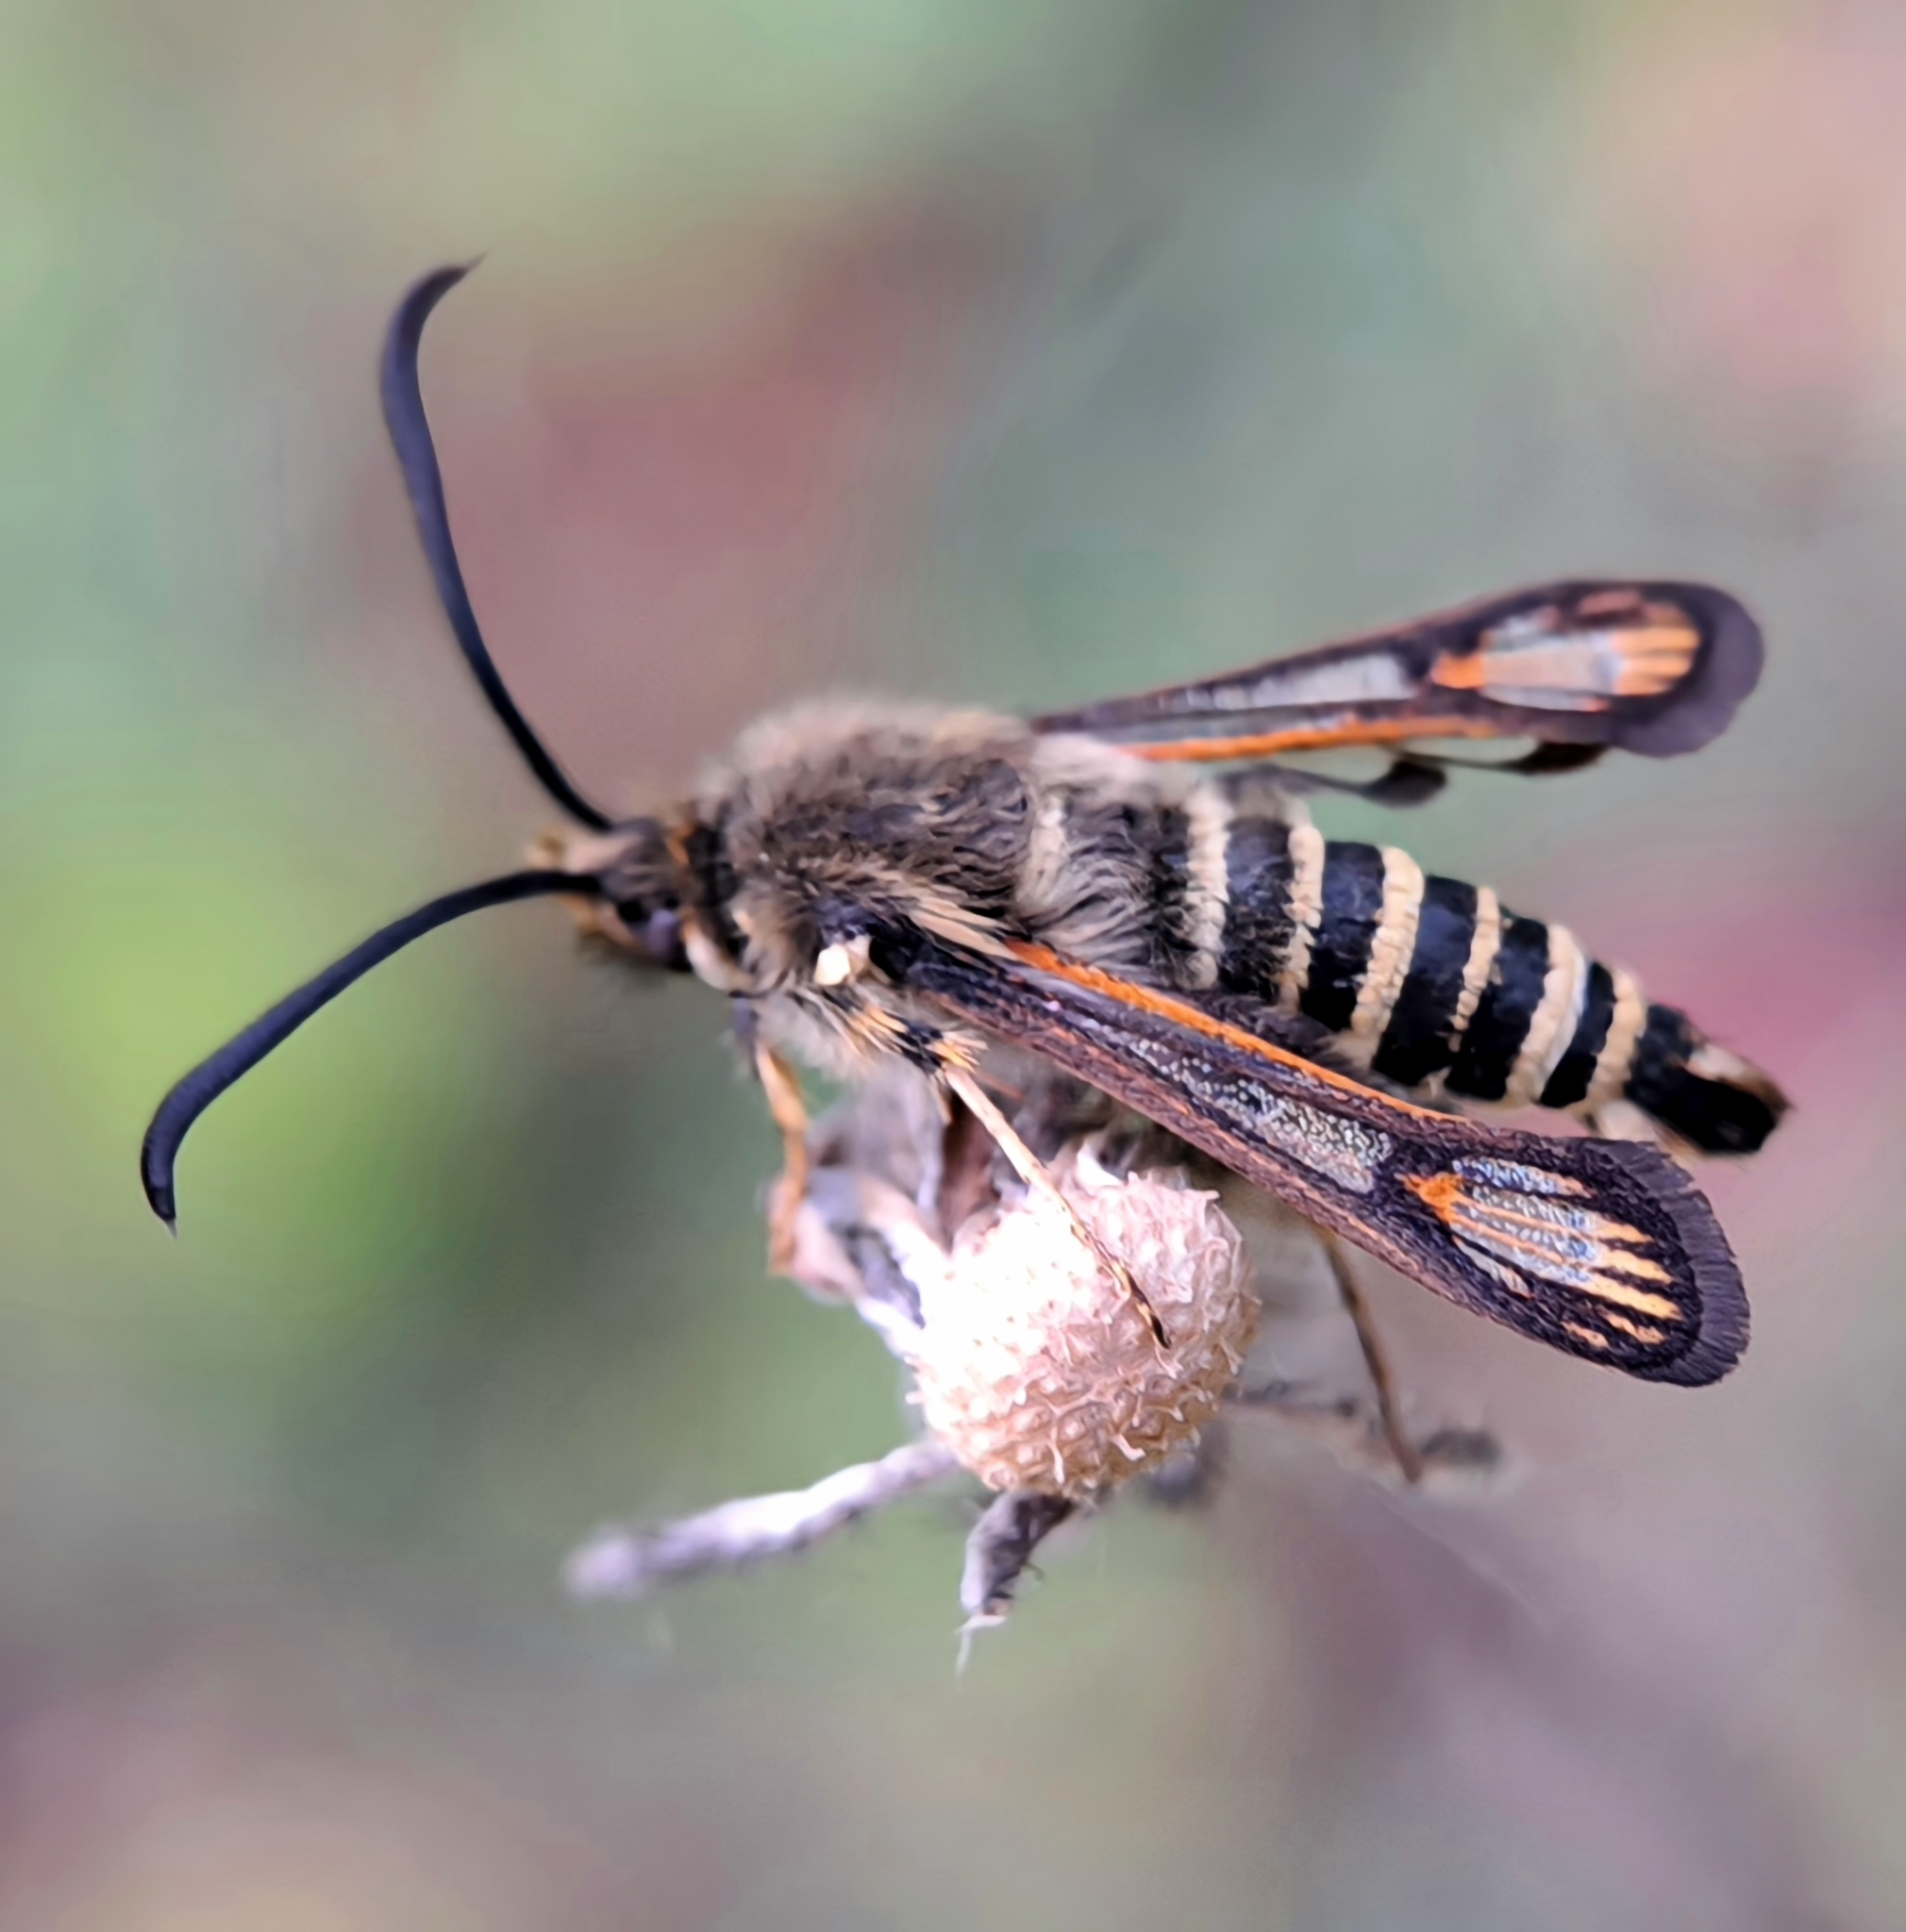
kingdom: Animalia
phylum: Arthropoda
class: Insecta
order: Lepidoptera
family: Sesiidae
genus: Bembecia
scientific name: Bembecia ichneumoniformis
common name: Six-belted clearwing
